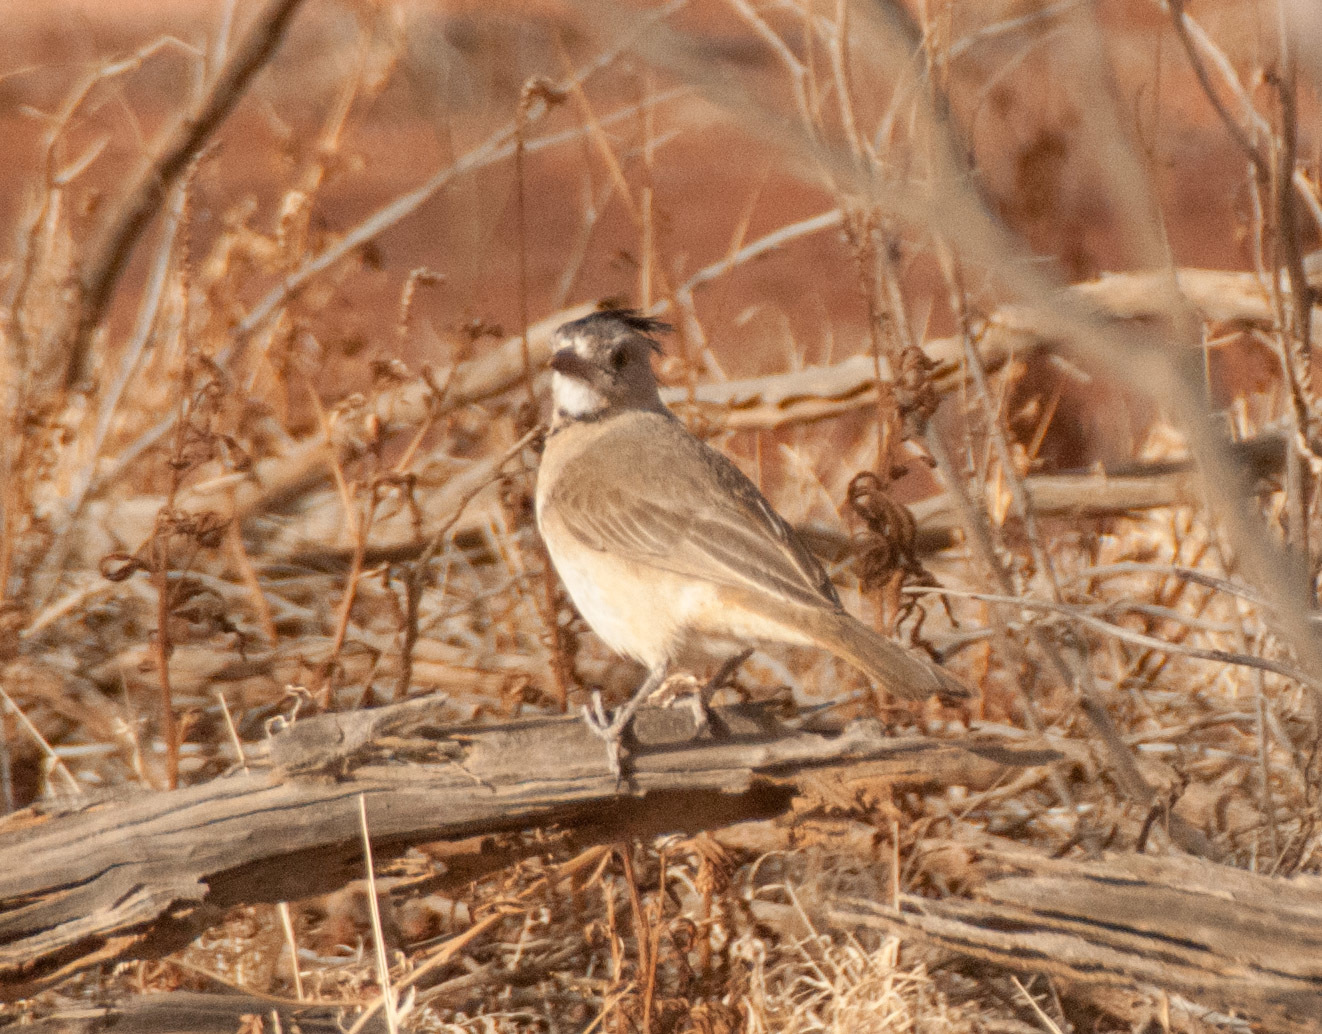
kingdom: Animalia
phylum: Chordata
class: Aves
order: Passeriformes
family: Oreoicidae
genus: Oreoica
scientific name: Oreoica gutturalis
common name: Crested bellbird
